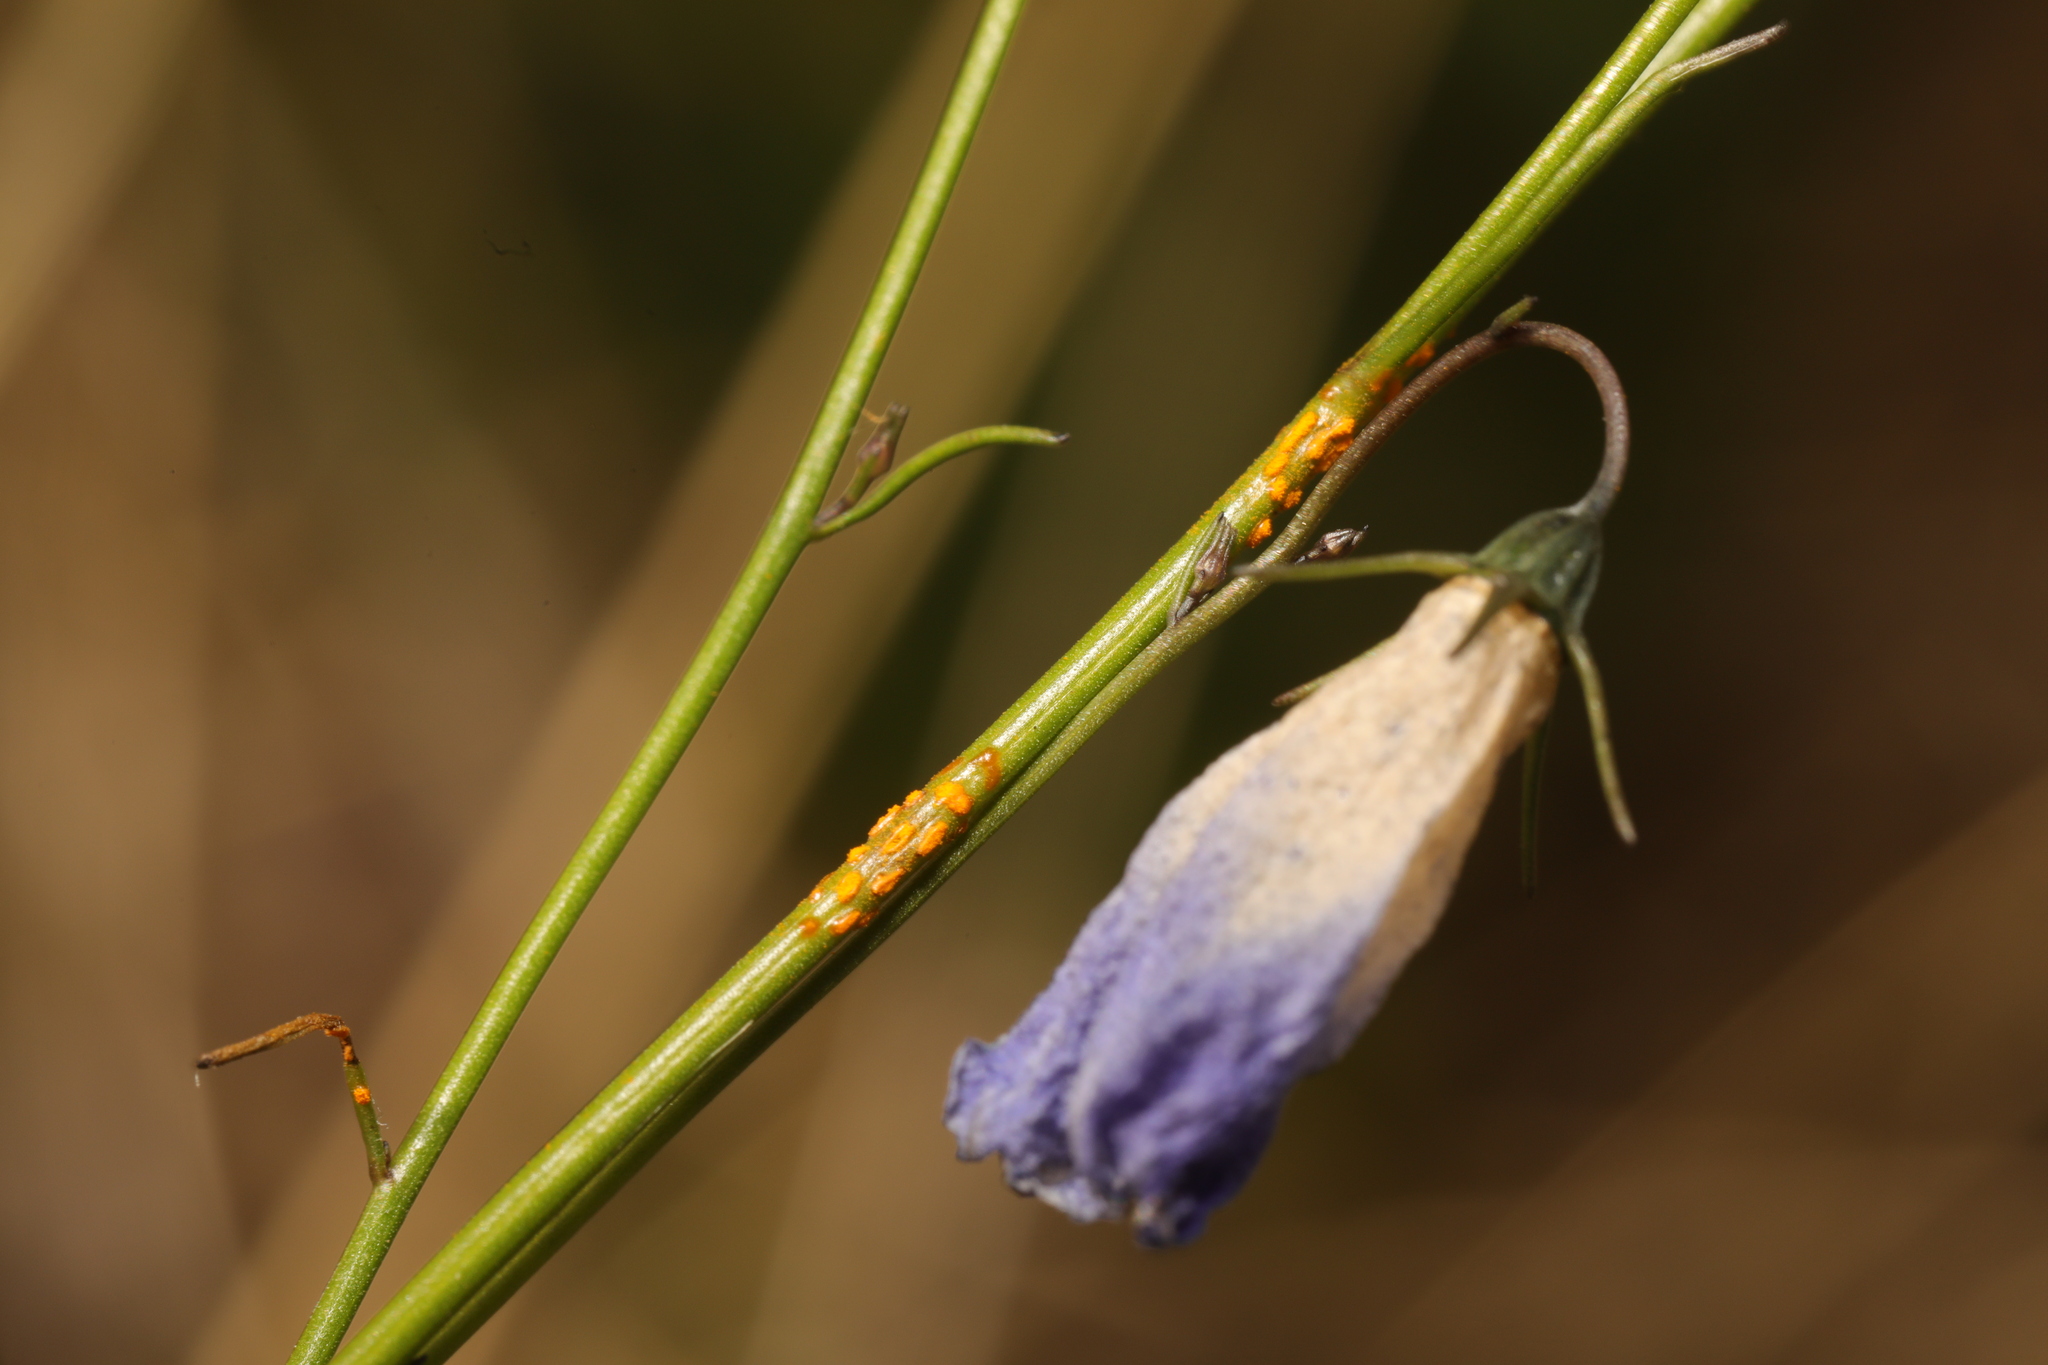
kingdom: Fungi
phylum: Basidiomycota
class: Pucciniomycetes
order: Pucciniales
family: Coleosporiaceae
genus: Coleosporium
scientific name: Coleosporium campanulae
